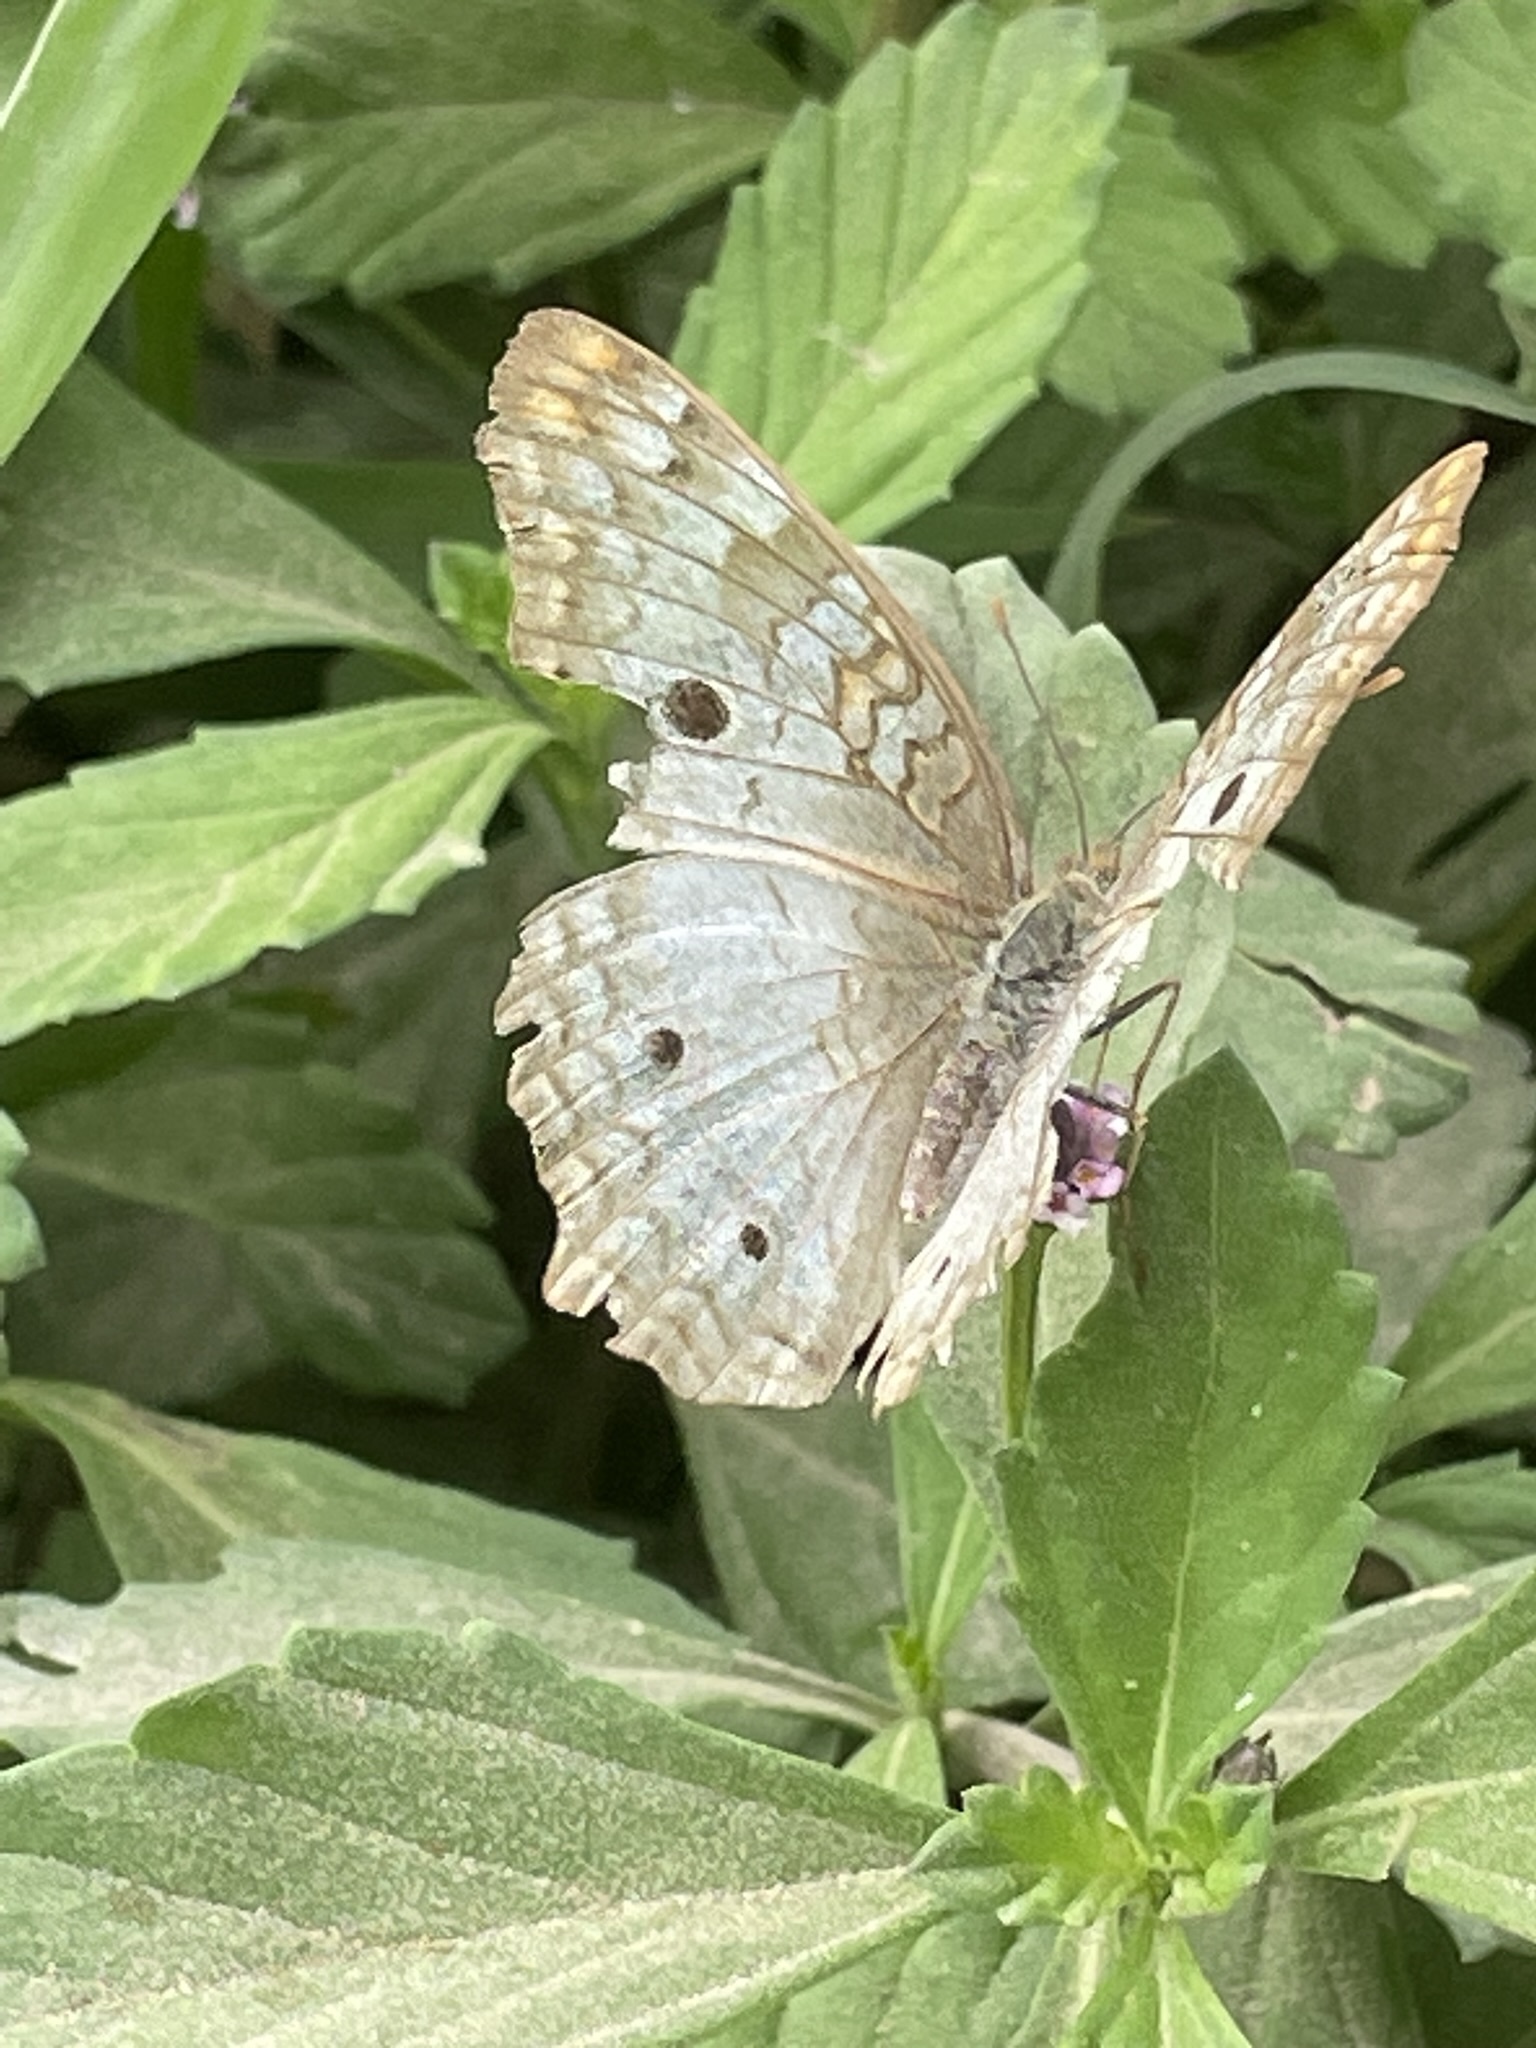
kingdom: Animalia
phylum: Arthropoda
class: Insecta
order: Lepidoptera
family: Nymphalidae
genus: Anartia
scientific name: Anartia jatrophae
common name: White peacock
